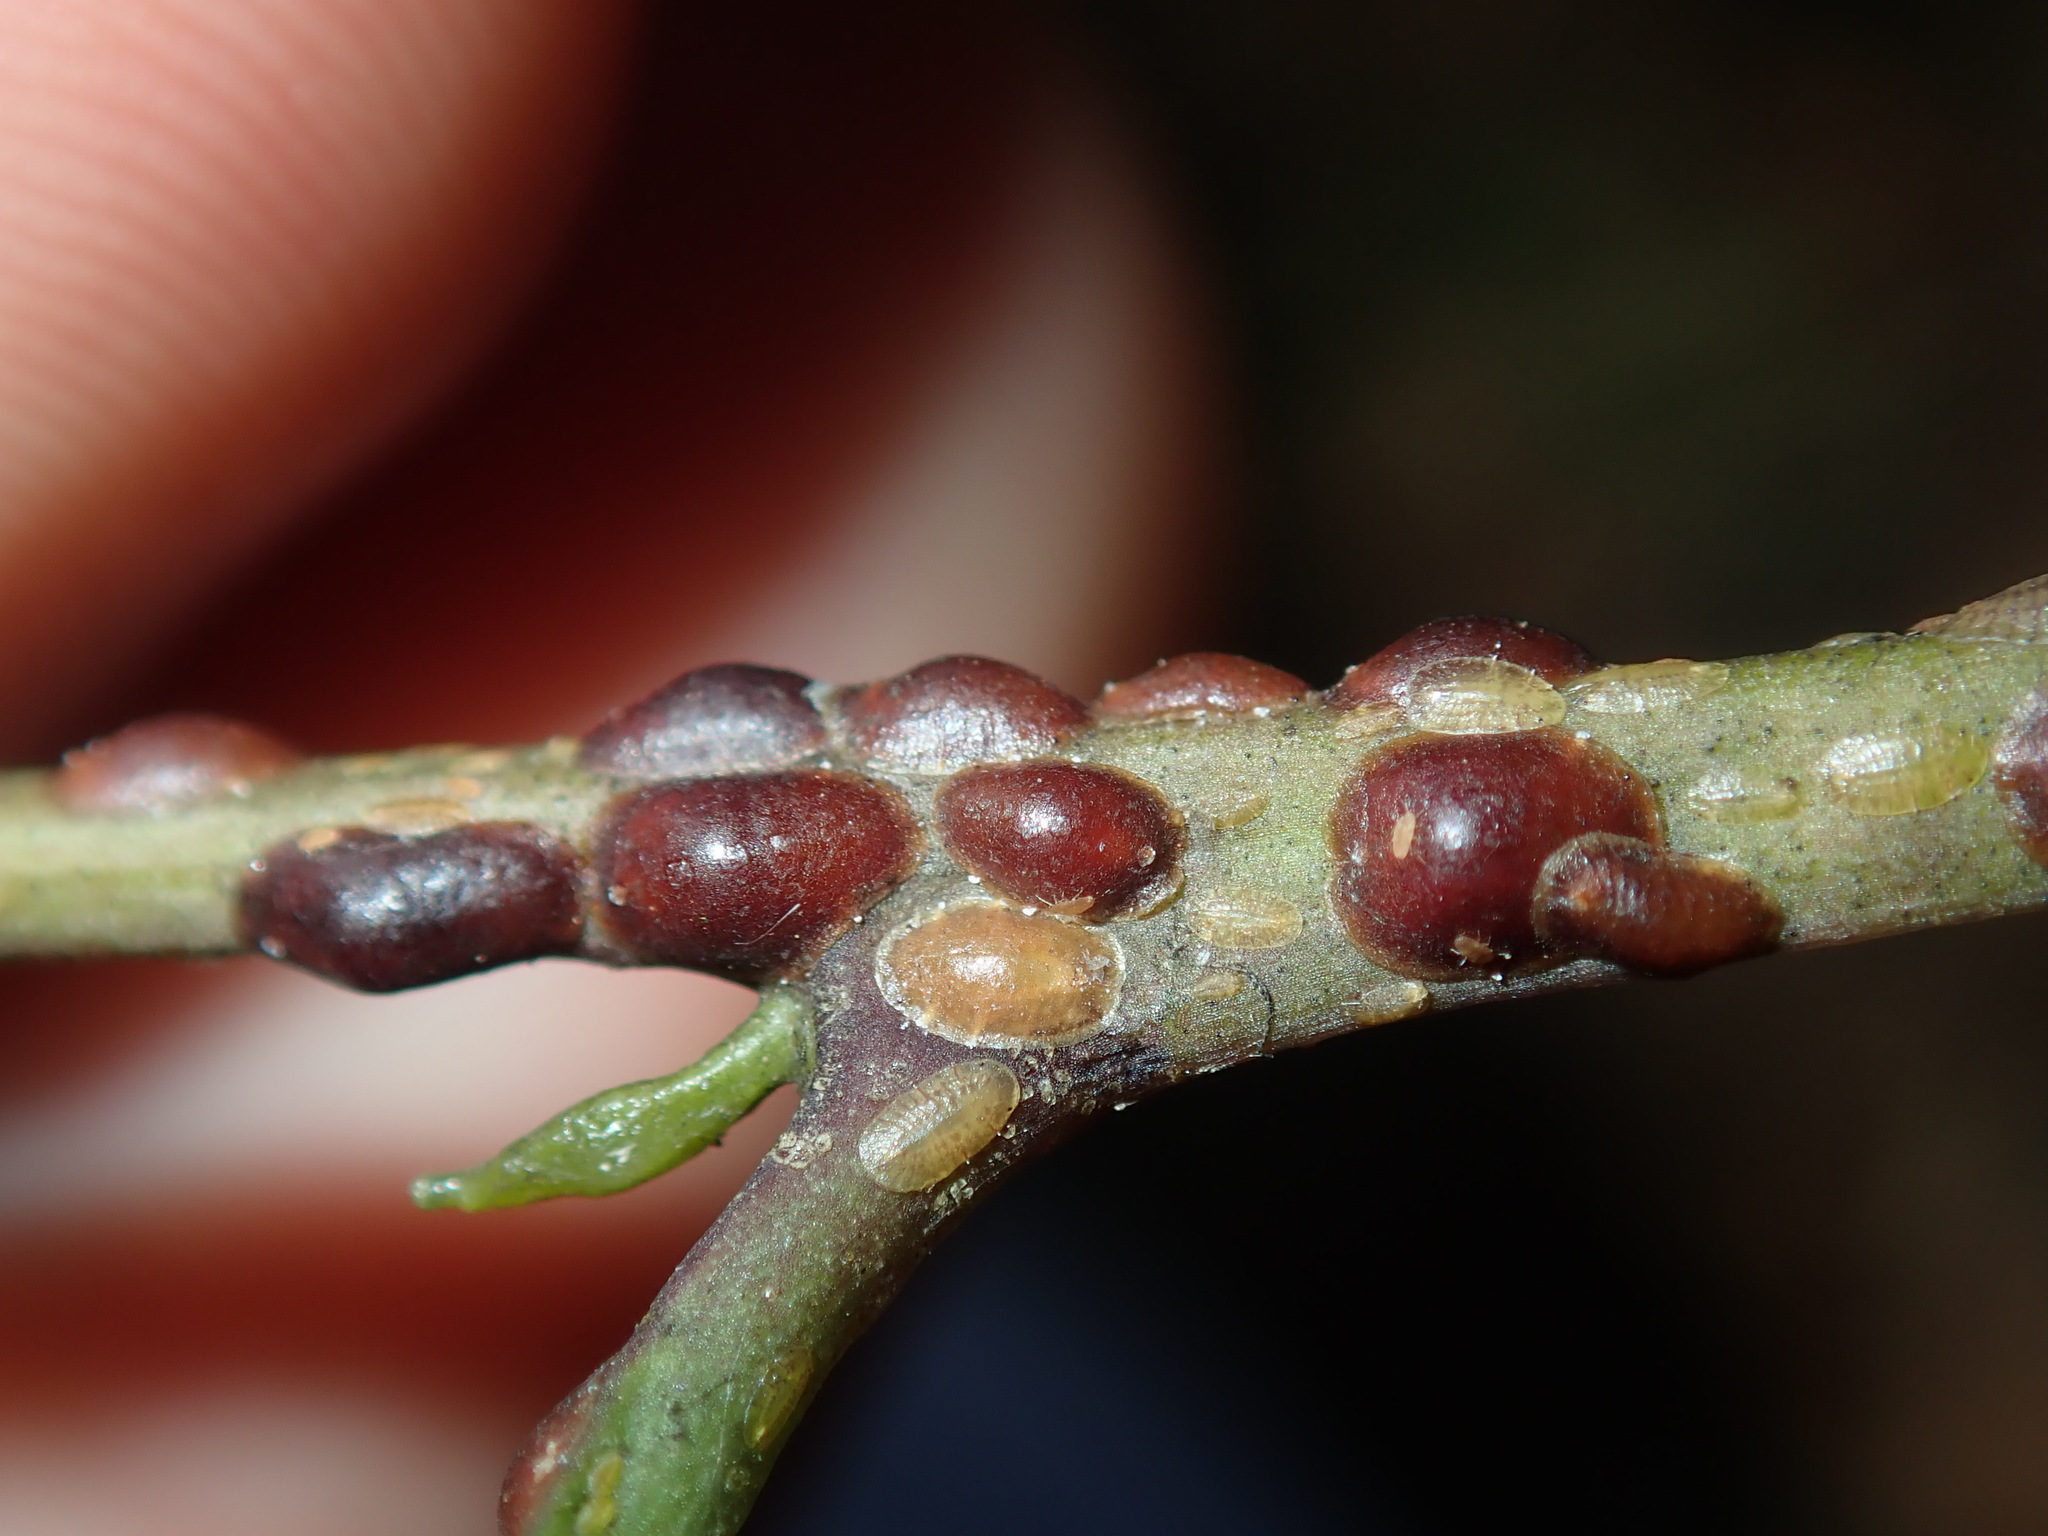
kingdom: Animalia
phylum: Arthropoda
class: Insecta
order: Hemiptera
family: Coccidae
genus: Parasaissetia
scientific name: Parasaissetia nigra
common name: Black scale
